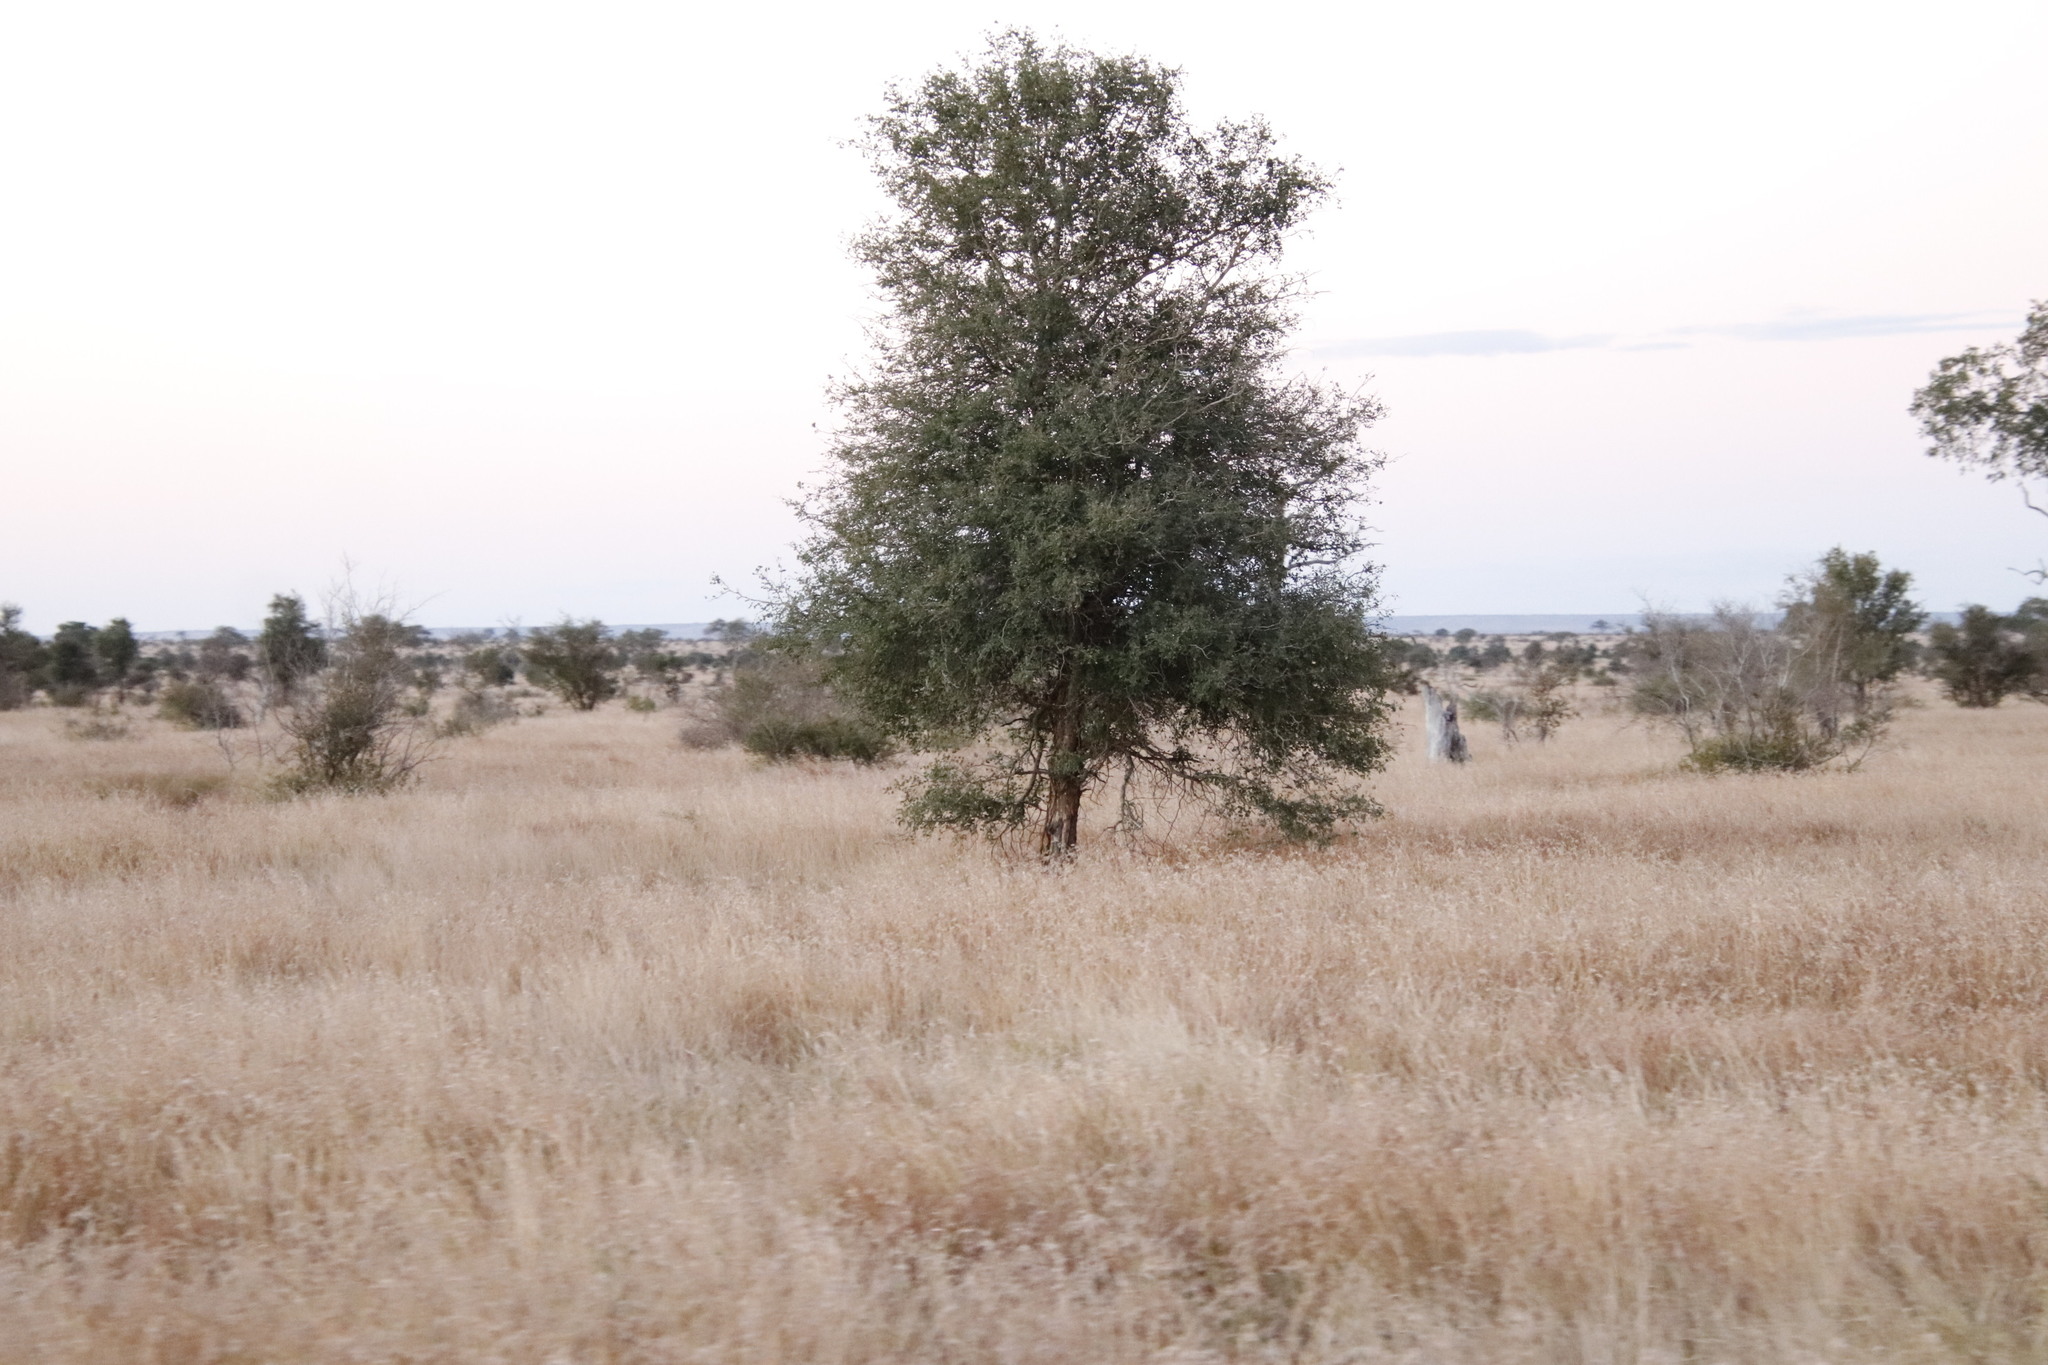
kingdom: Plantae
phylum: Tracheophyta
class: Magnoliopsida
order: Fabales
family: Fabaceae
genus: Senegalia
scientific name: Senegalia nigrescens
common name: Knobthorn
